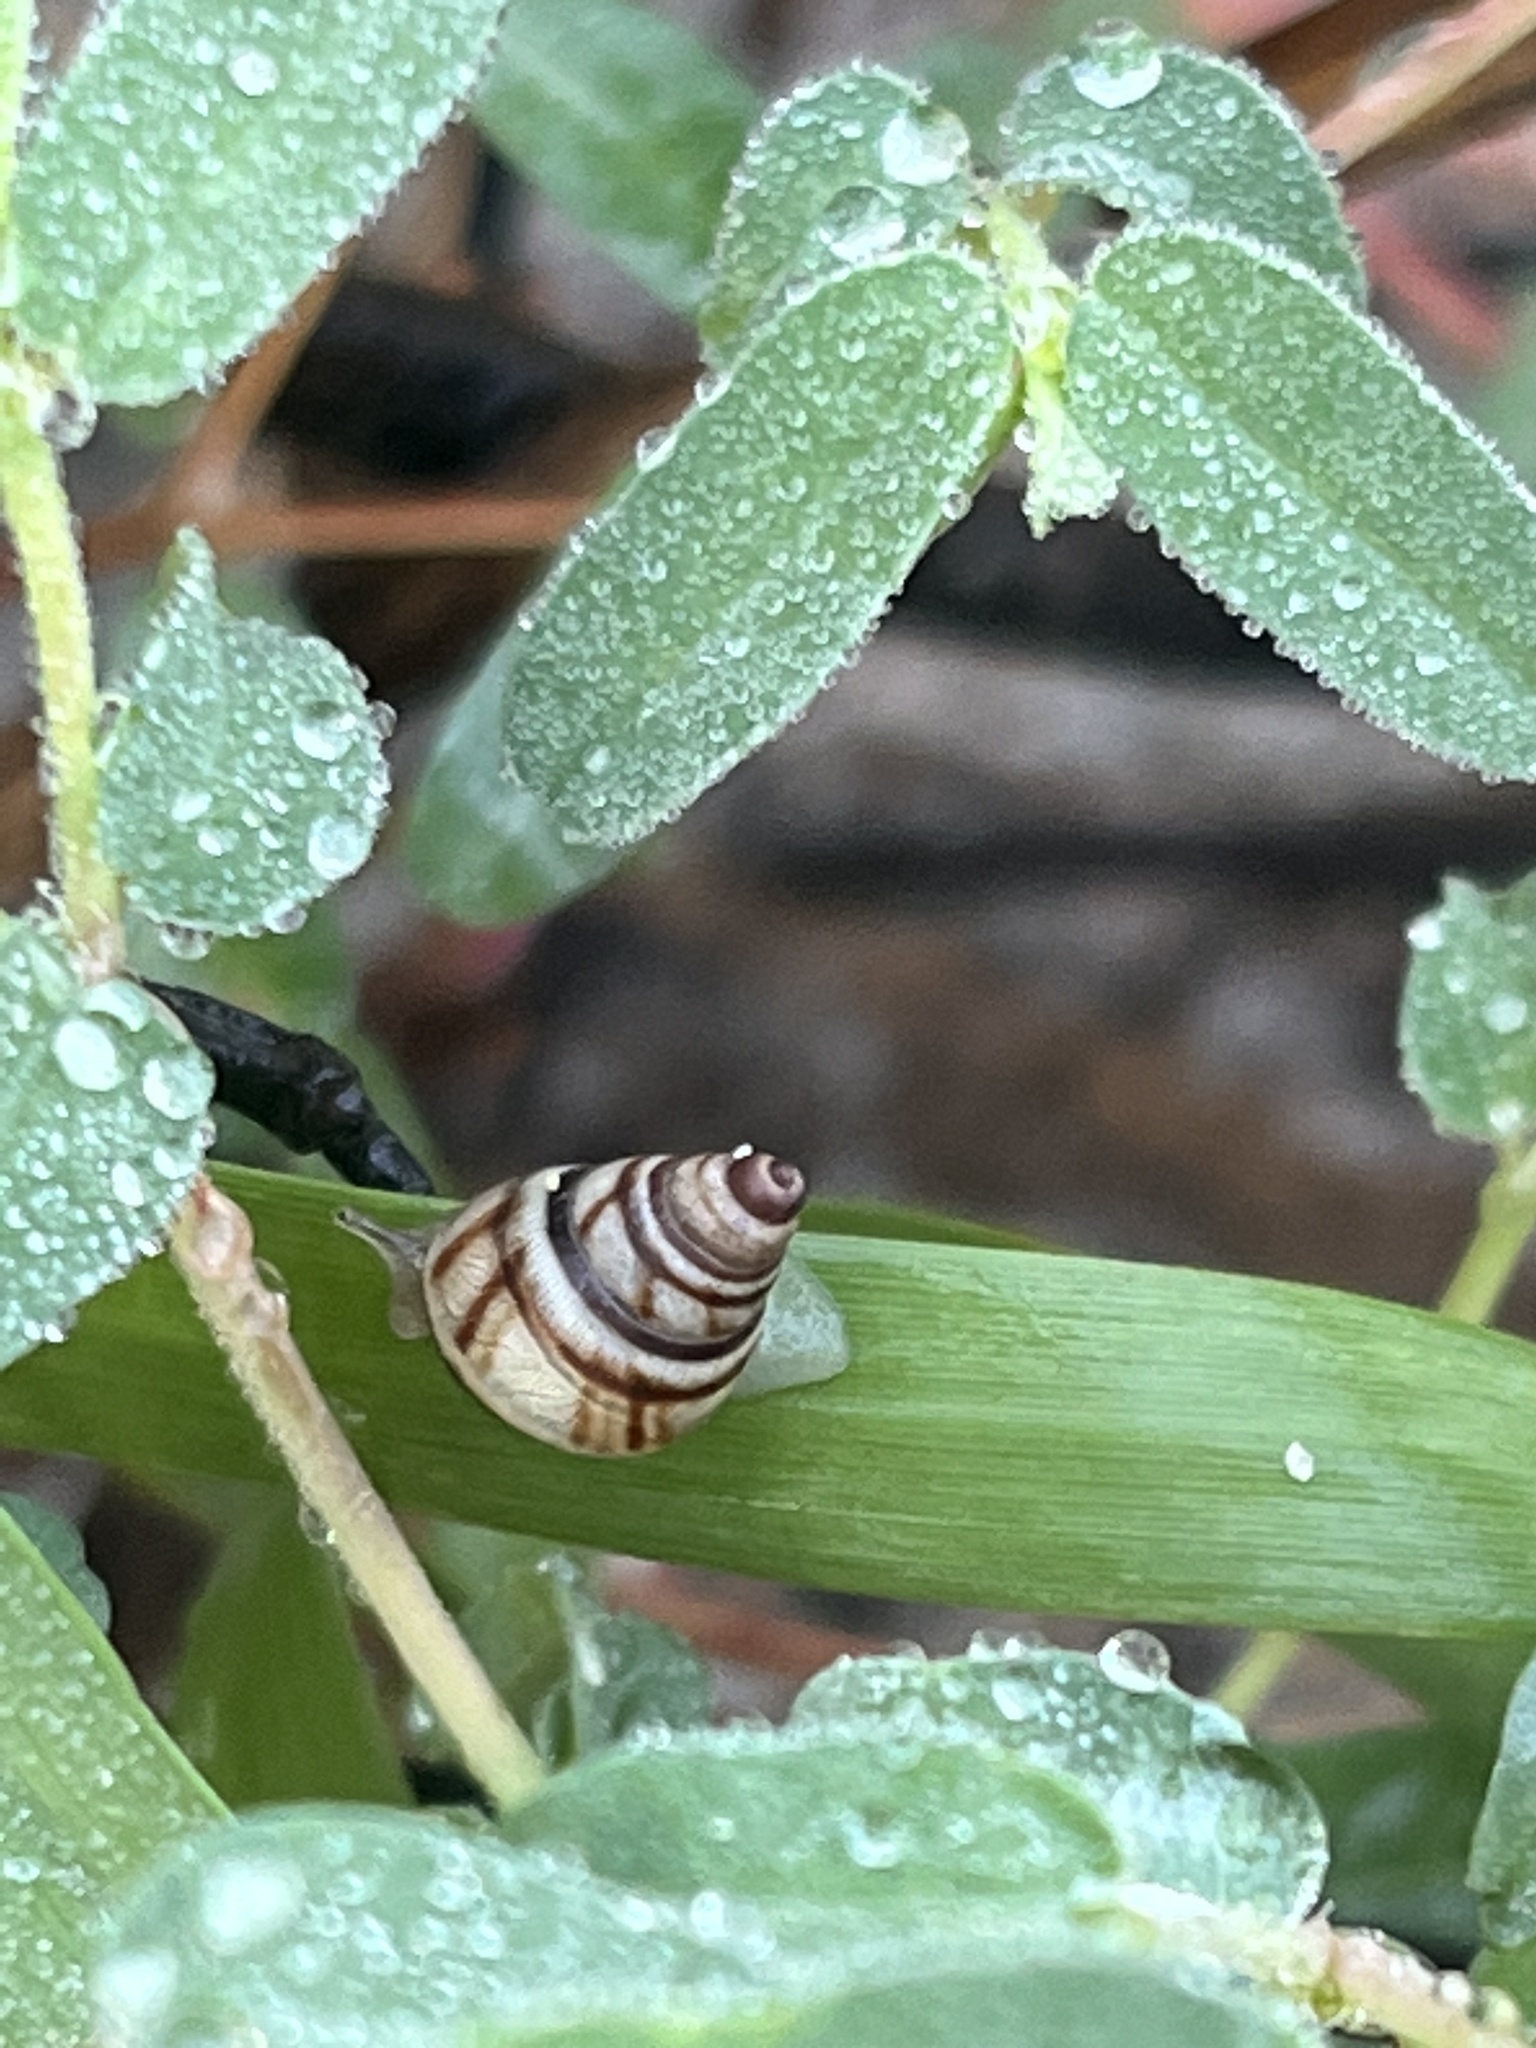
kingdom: Animalia
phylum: Mollusca
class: Gastropoda
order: Stylommatophora
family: Bulimulidae
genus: Drymaeus
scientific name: Drymaeus
